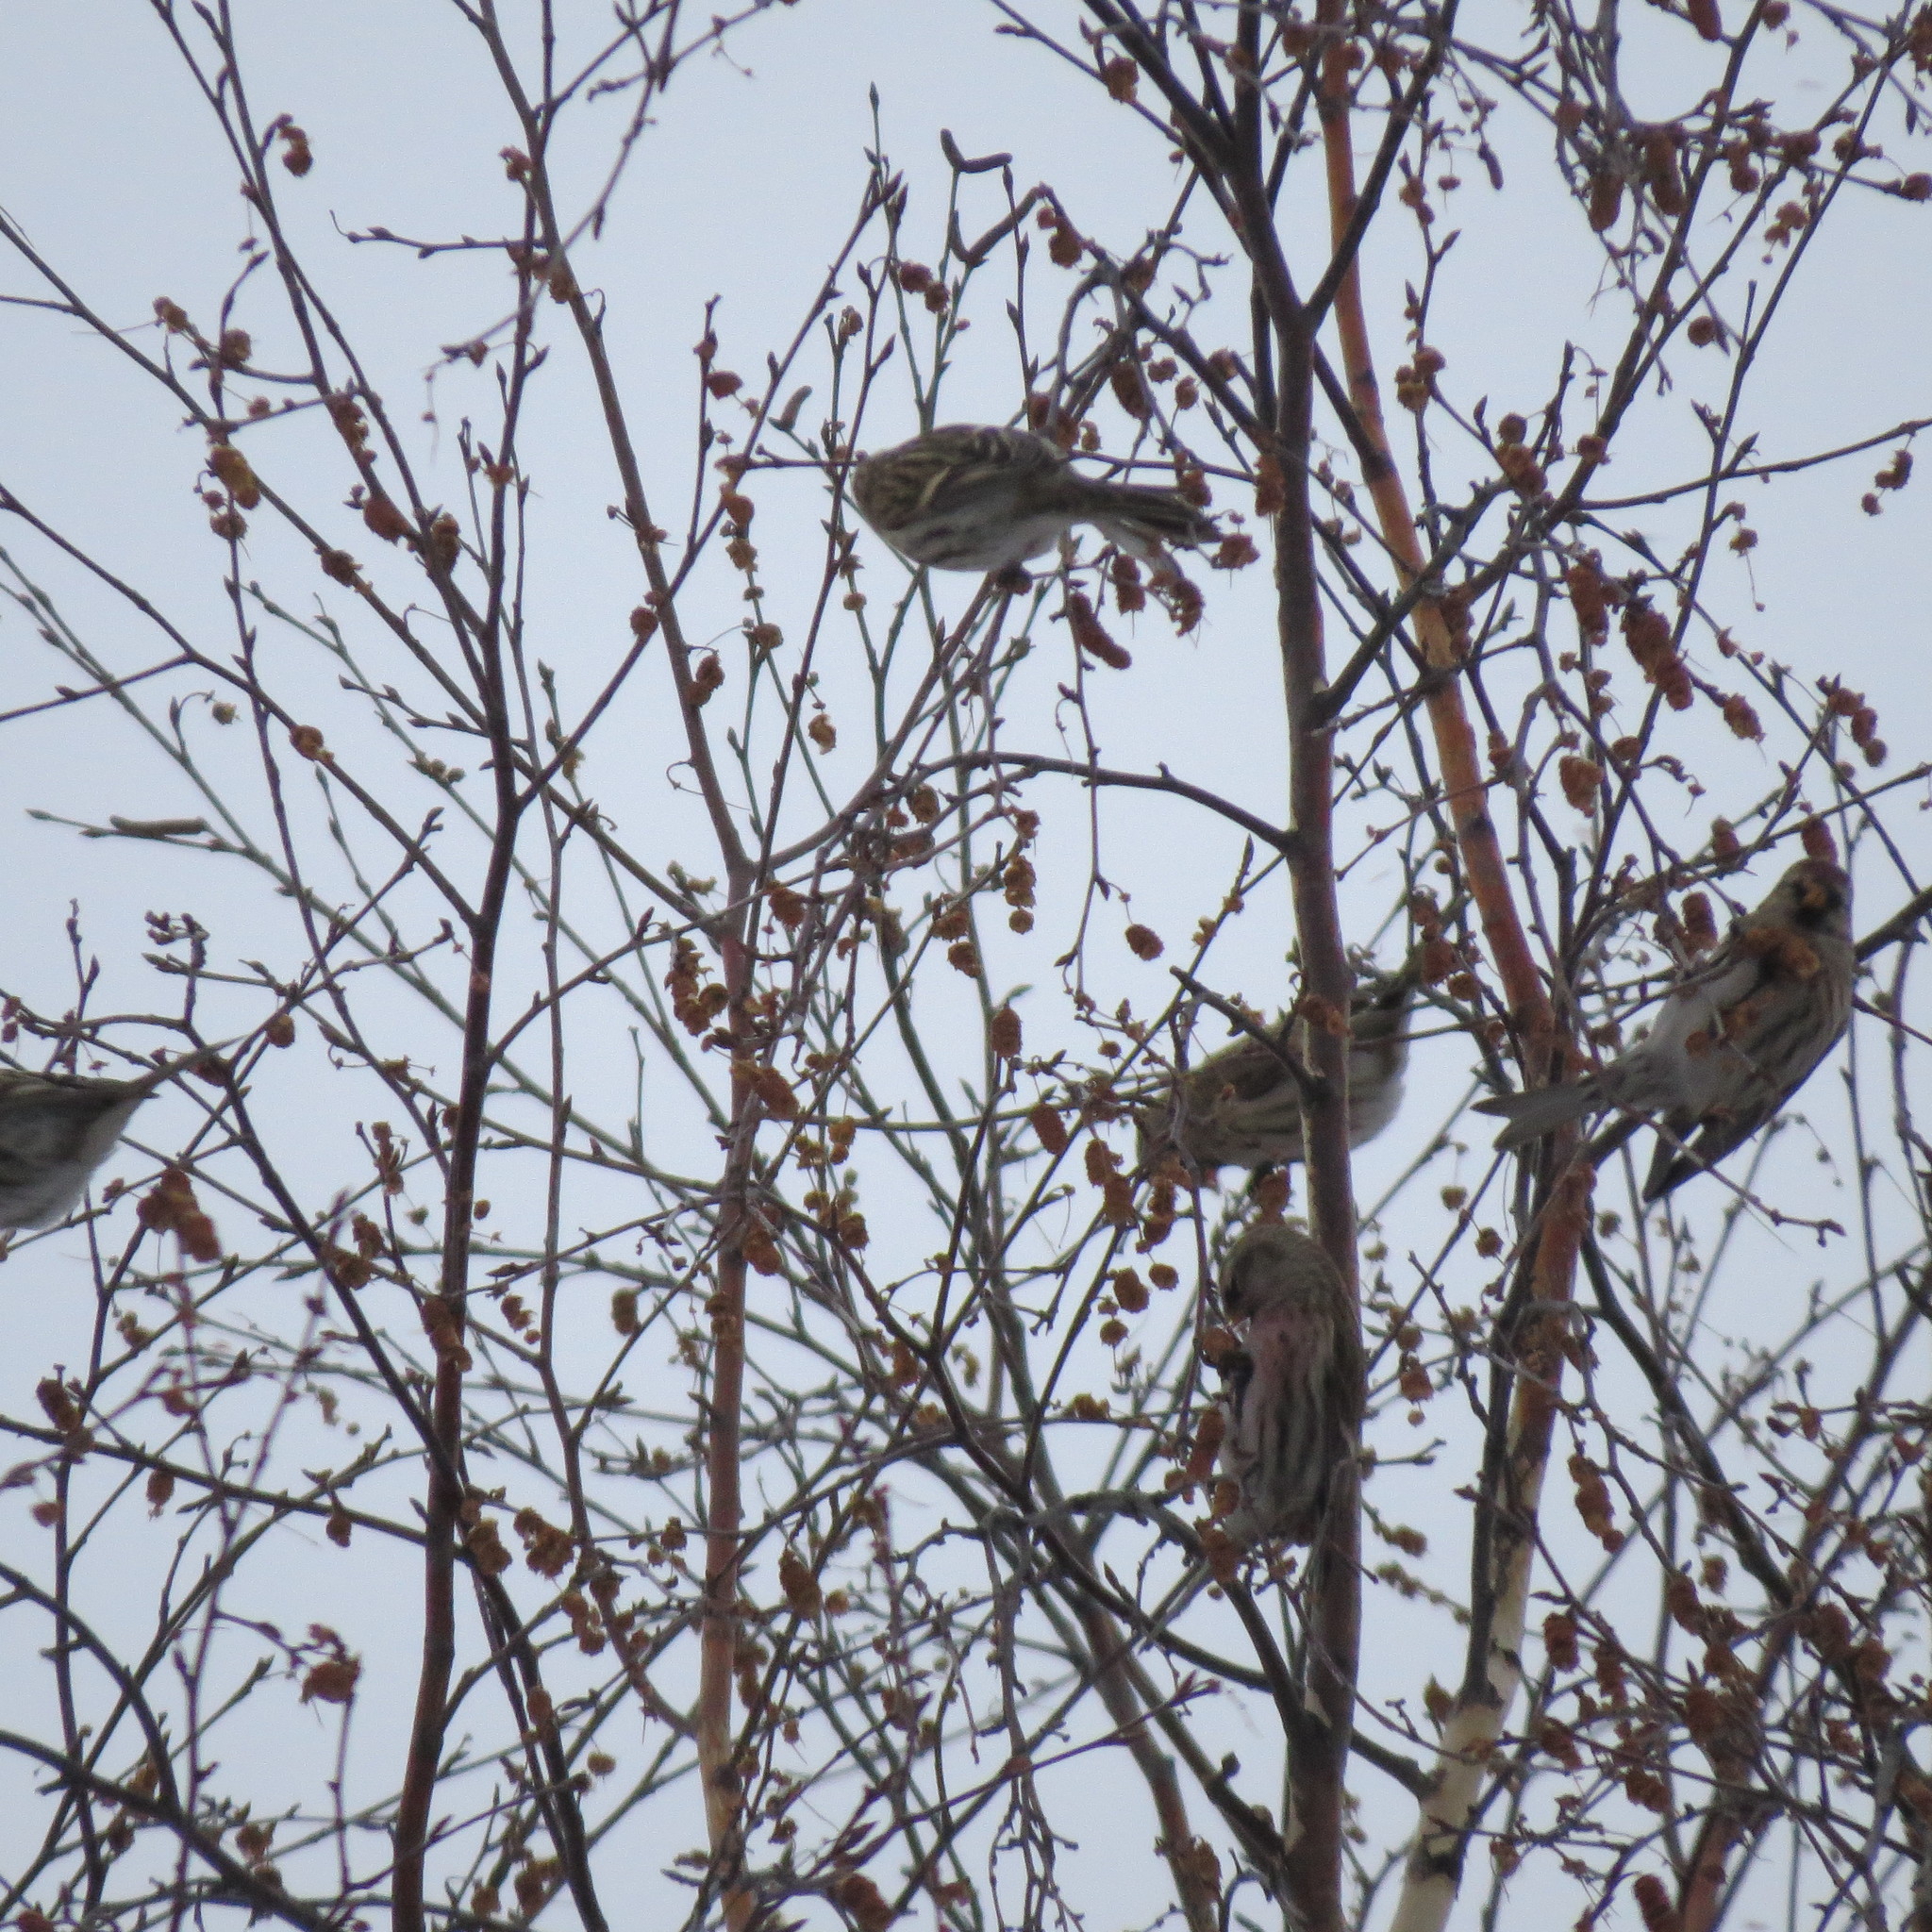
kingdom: Animalia
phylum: Chordata
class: Aves
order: Passeriformes
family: Fringillidae
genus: Acanthis
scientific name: Acanthis flammea
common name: Common redpoll
